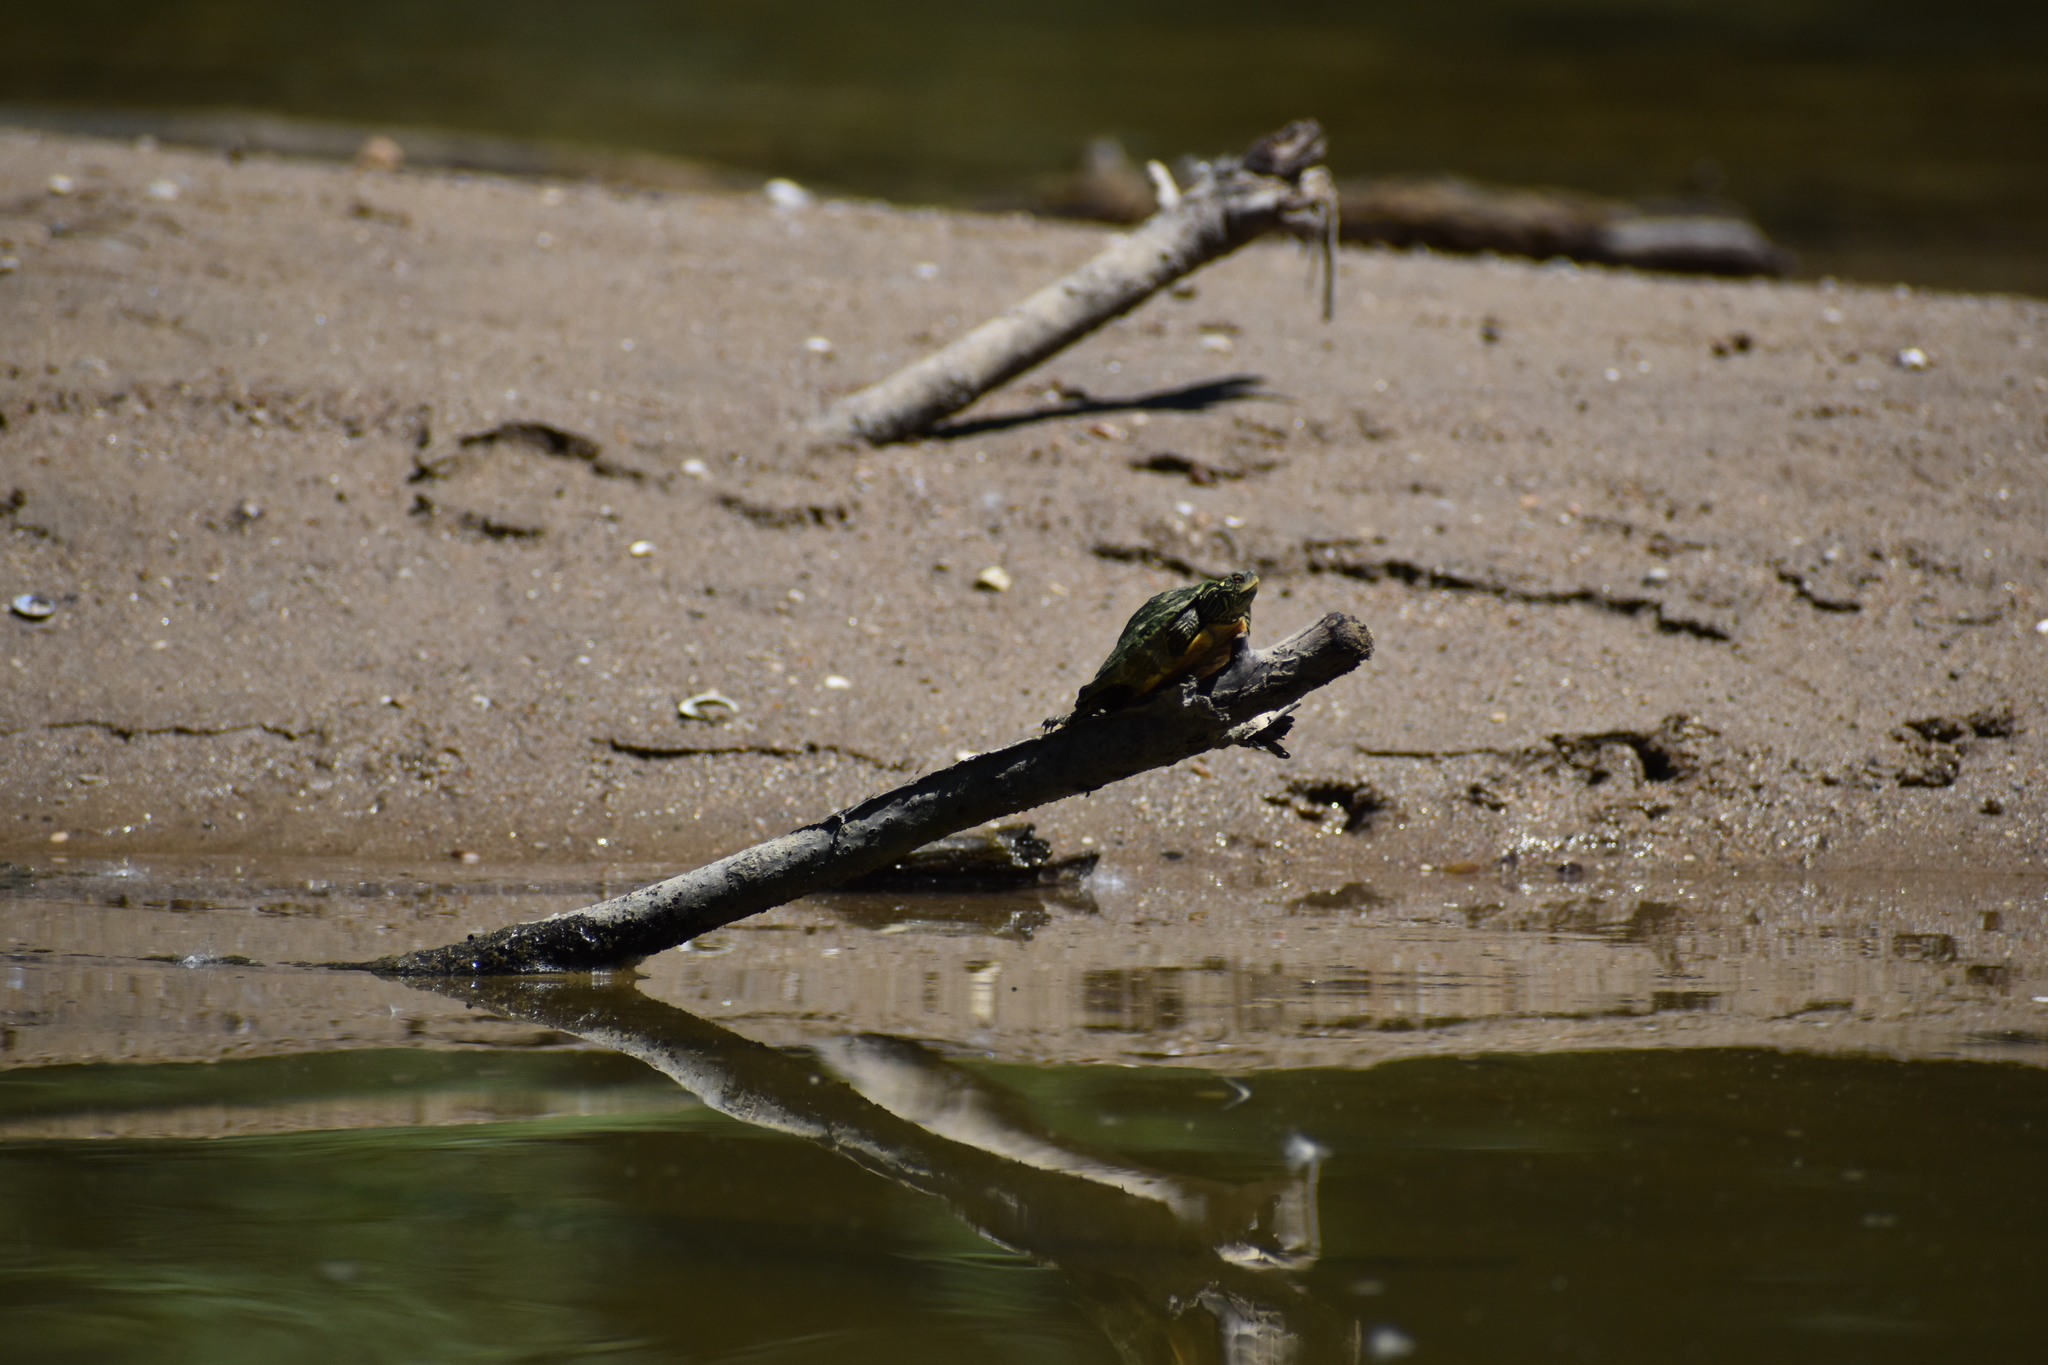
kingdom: Animalia
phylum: Chordata
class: Testudines
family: Emydidae
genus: Graptemys
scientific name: Graptemys geographica
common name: Common map turtle
